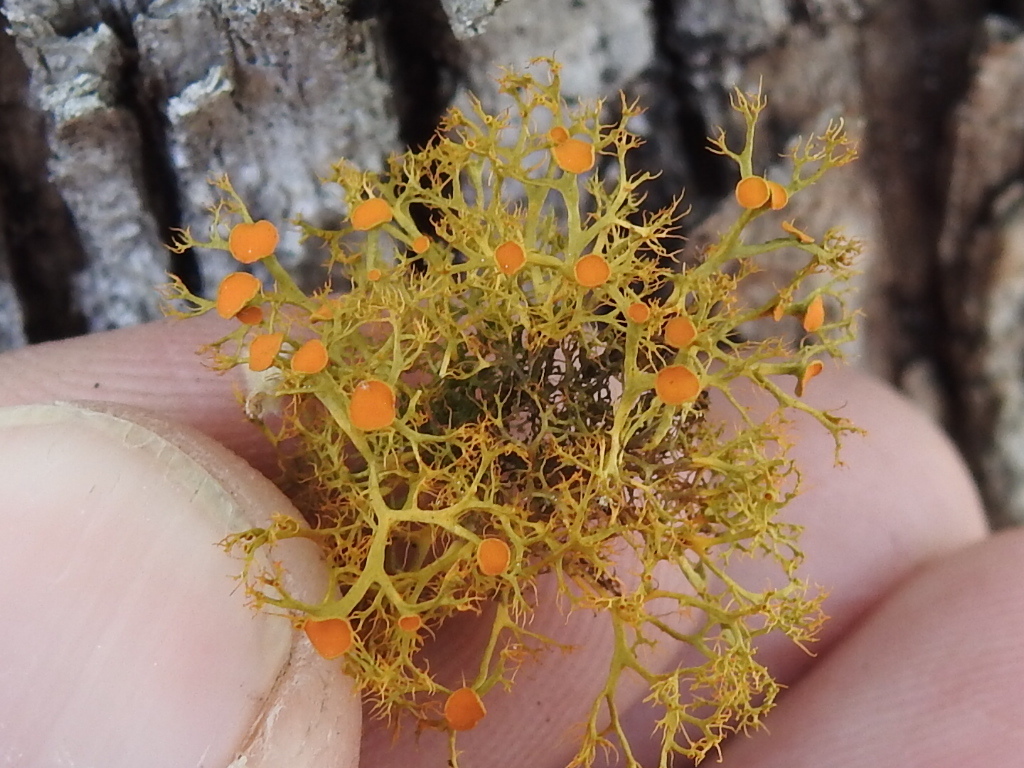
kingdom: Fungi
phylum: Ascomycota
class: Lecanoromycetes
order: Teloschistales
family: Teloschistaceae
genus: Teloschistes
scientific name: Teloschistes exilis
